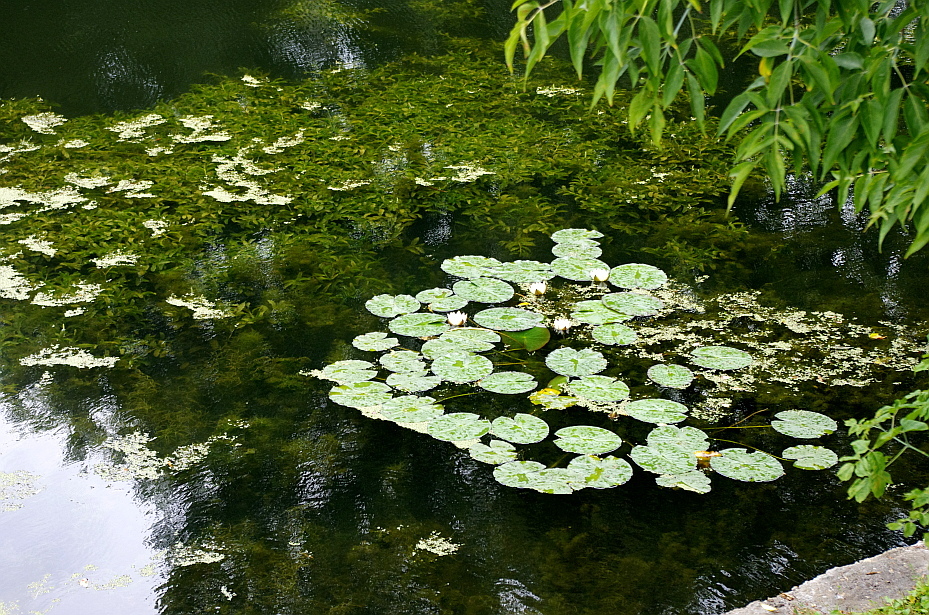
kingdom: Plantae
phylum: Tracheophyta
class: Magnoliopsida
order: Nymphaeales
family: Nymphaeaceae
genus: Nymphaea
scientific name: Nymphaea candida
